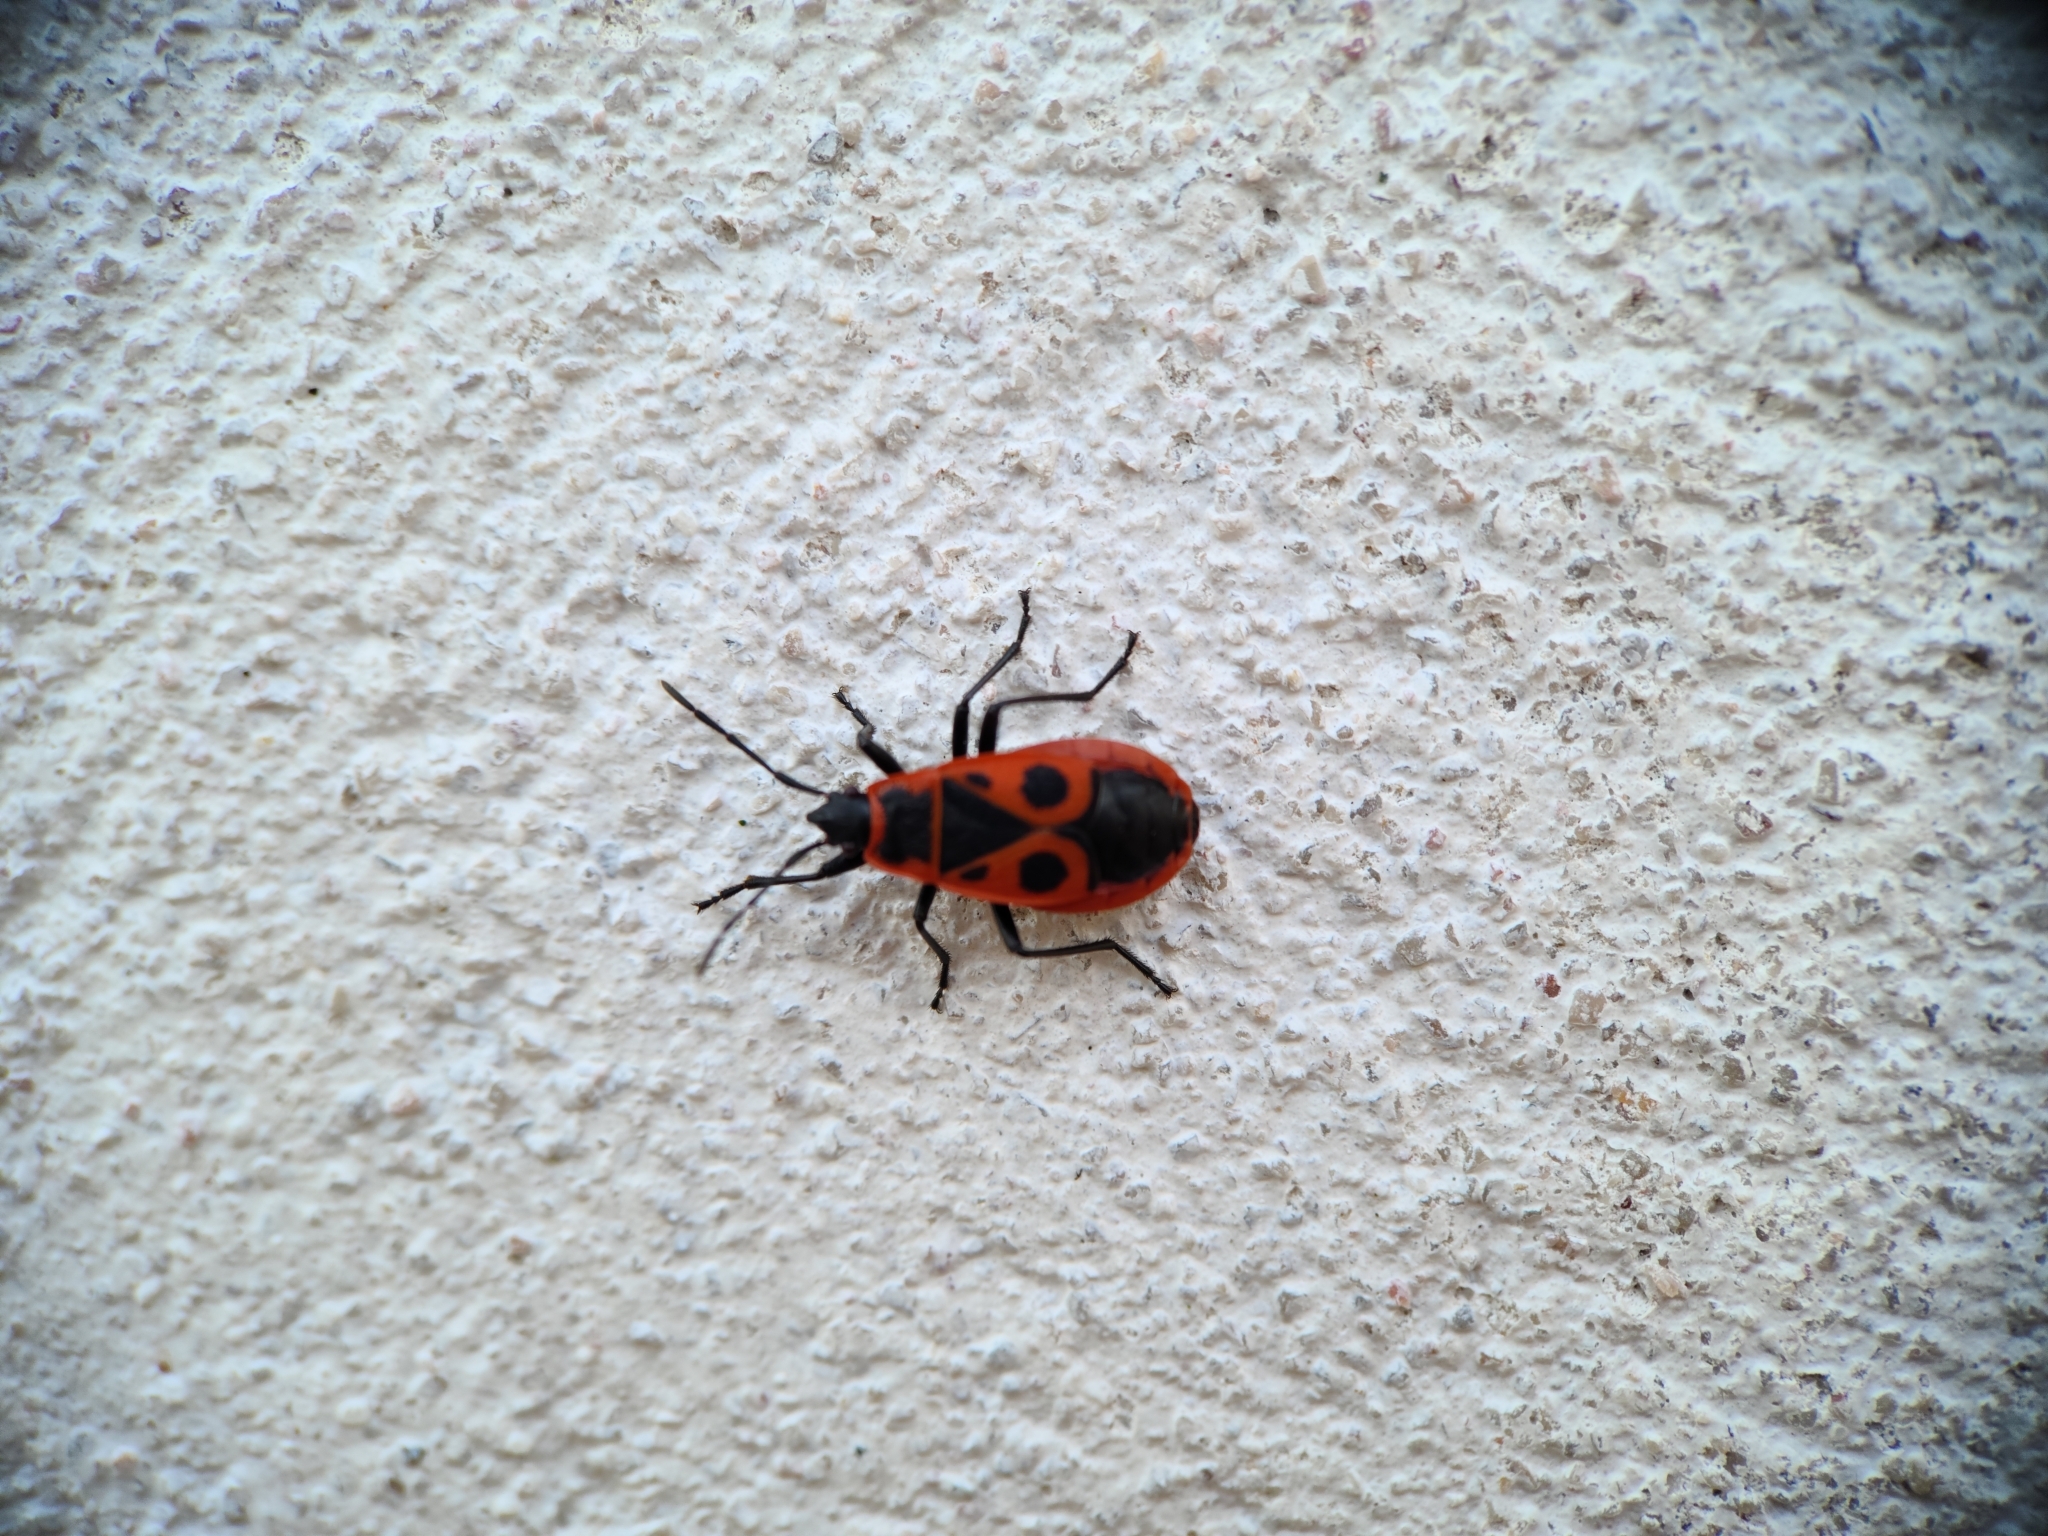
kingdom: Animalia
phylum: Arthropoda
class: Insecta
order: Hemiptera
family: Pyrrhocoridae
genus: Pyrrhocoris
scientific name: Pyrrhocoris apterus
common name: Firebug
